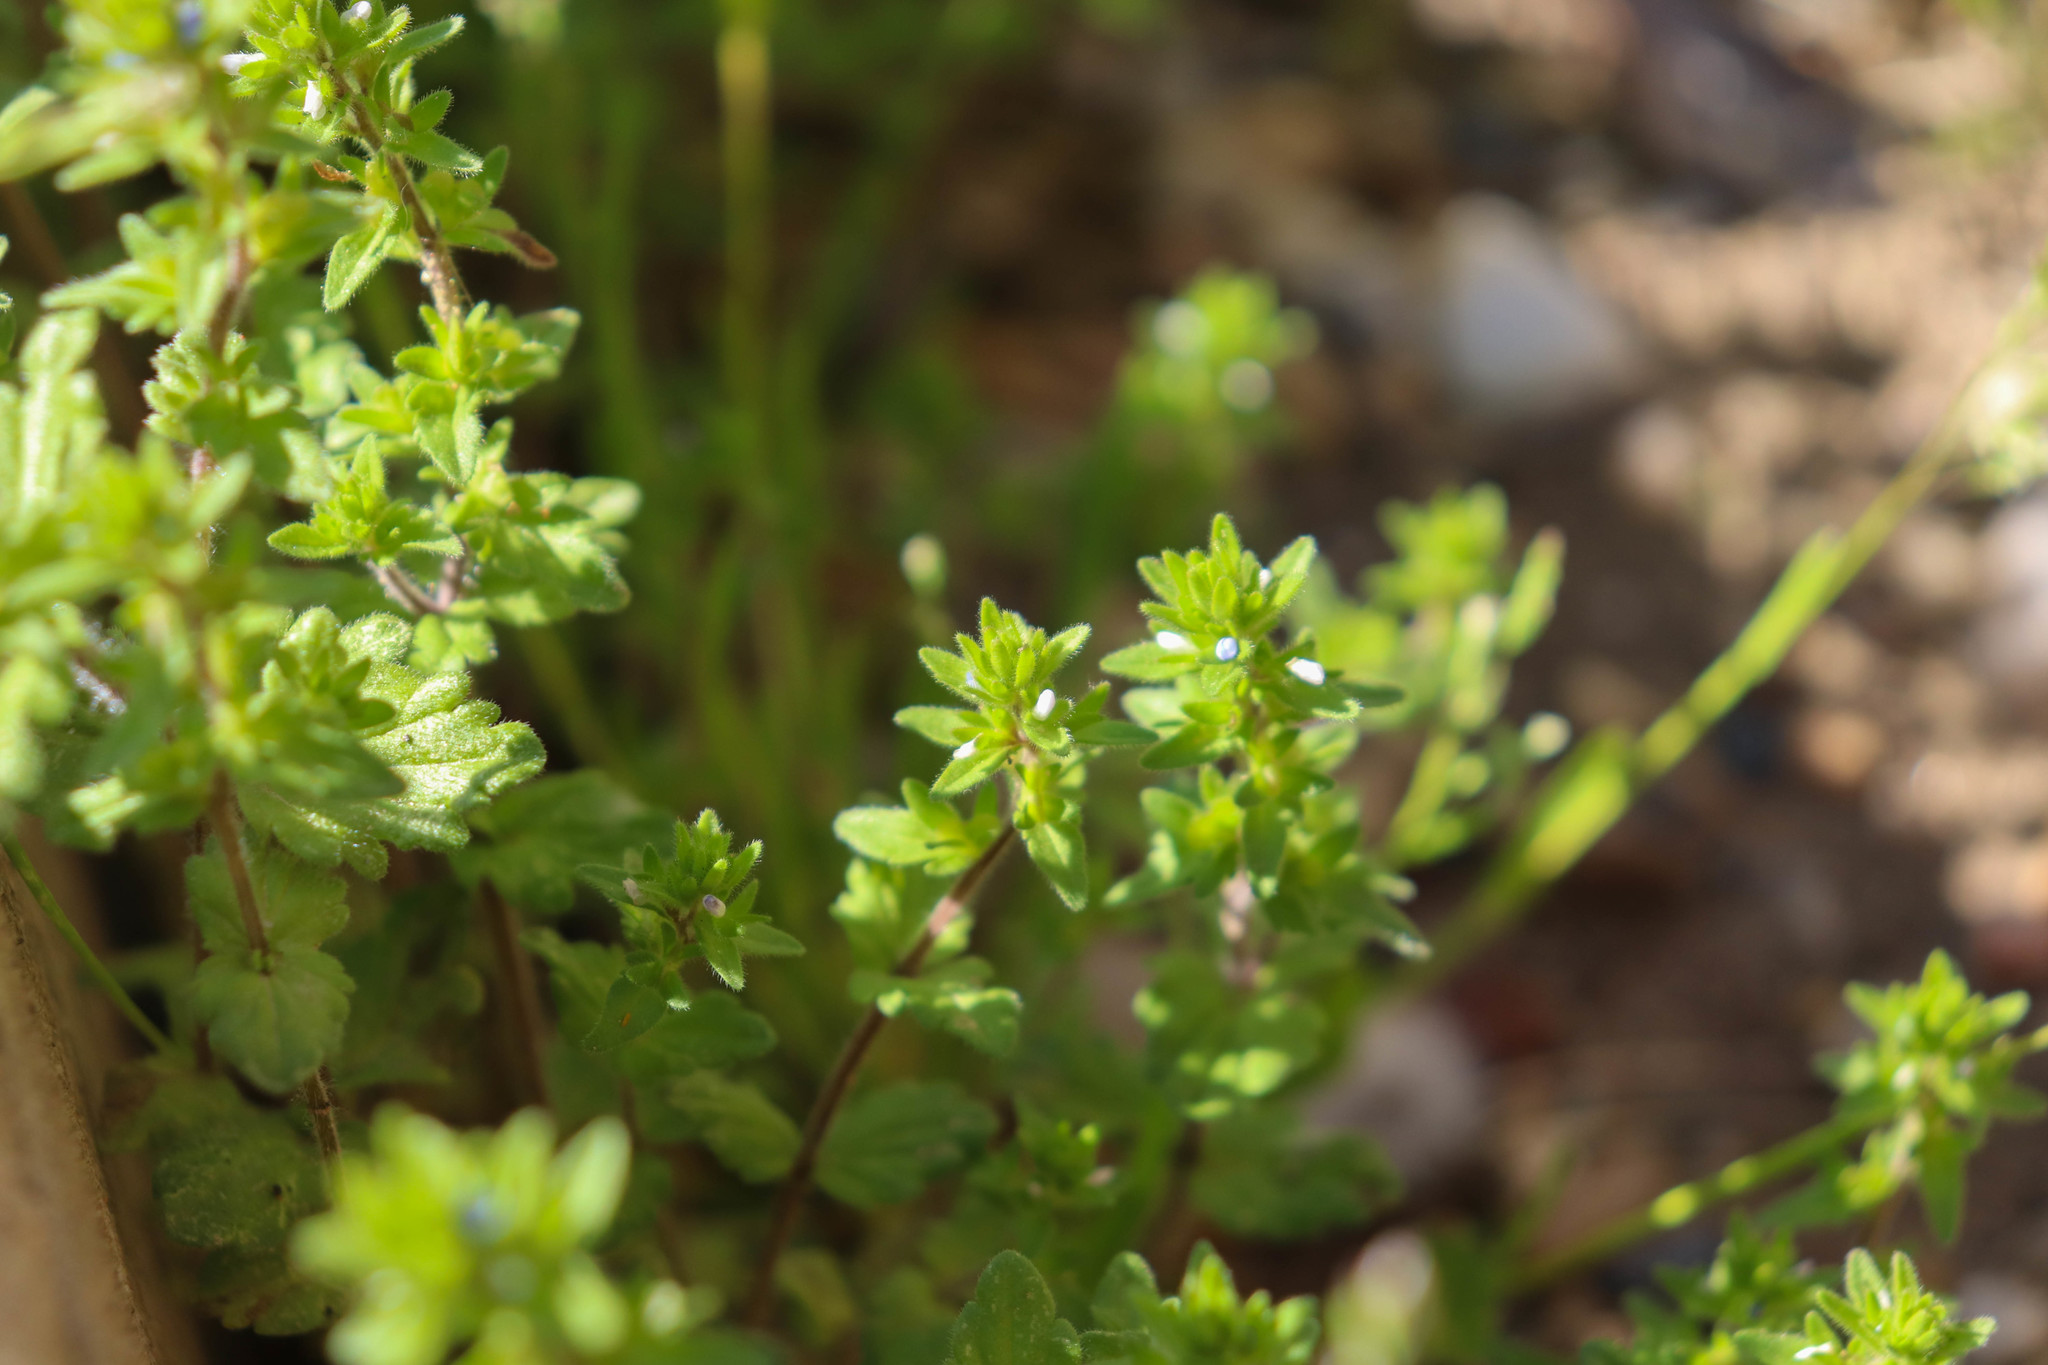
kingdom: Plantae
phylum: Tracheophyta
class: Magnoliopsida
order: Lamiales
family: Plantaginaceae
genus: Veronica
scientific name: Veronica arvensis
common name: Corn speedwell
